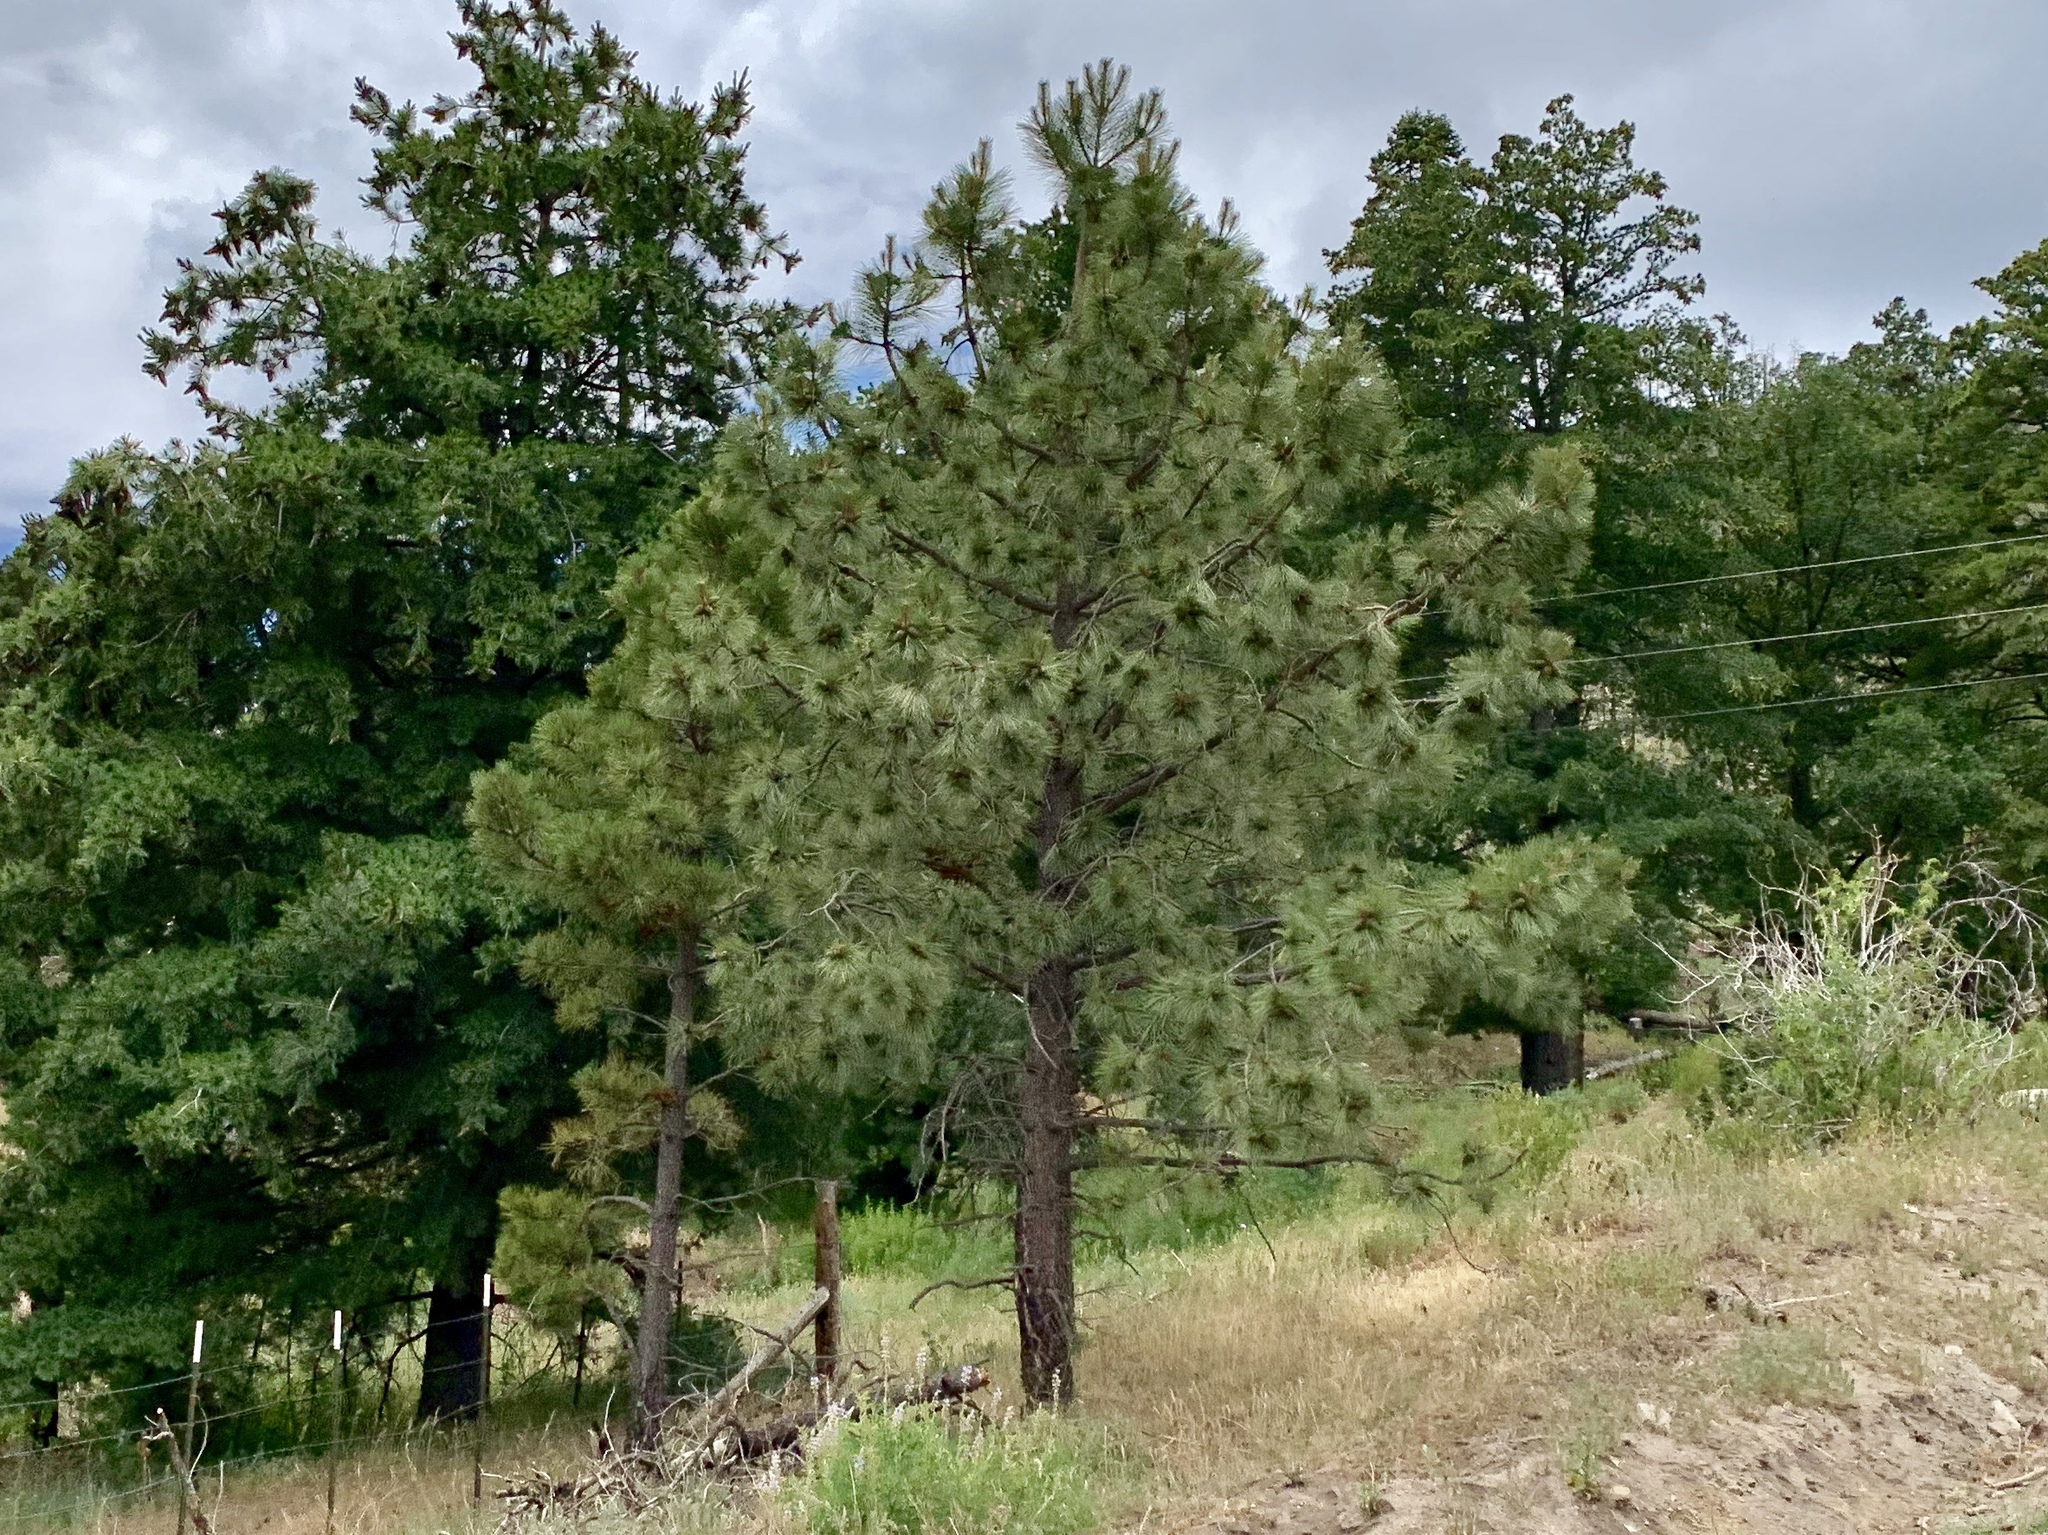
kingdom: Plantae
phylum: Tracheophyta
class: Pinopsida
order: Pinales
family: Pinaceae
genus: Pinus
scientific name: Pinus ponderosa
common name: Western yellow-pine
